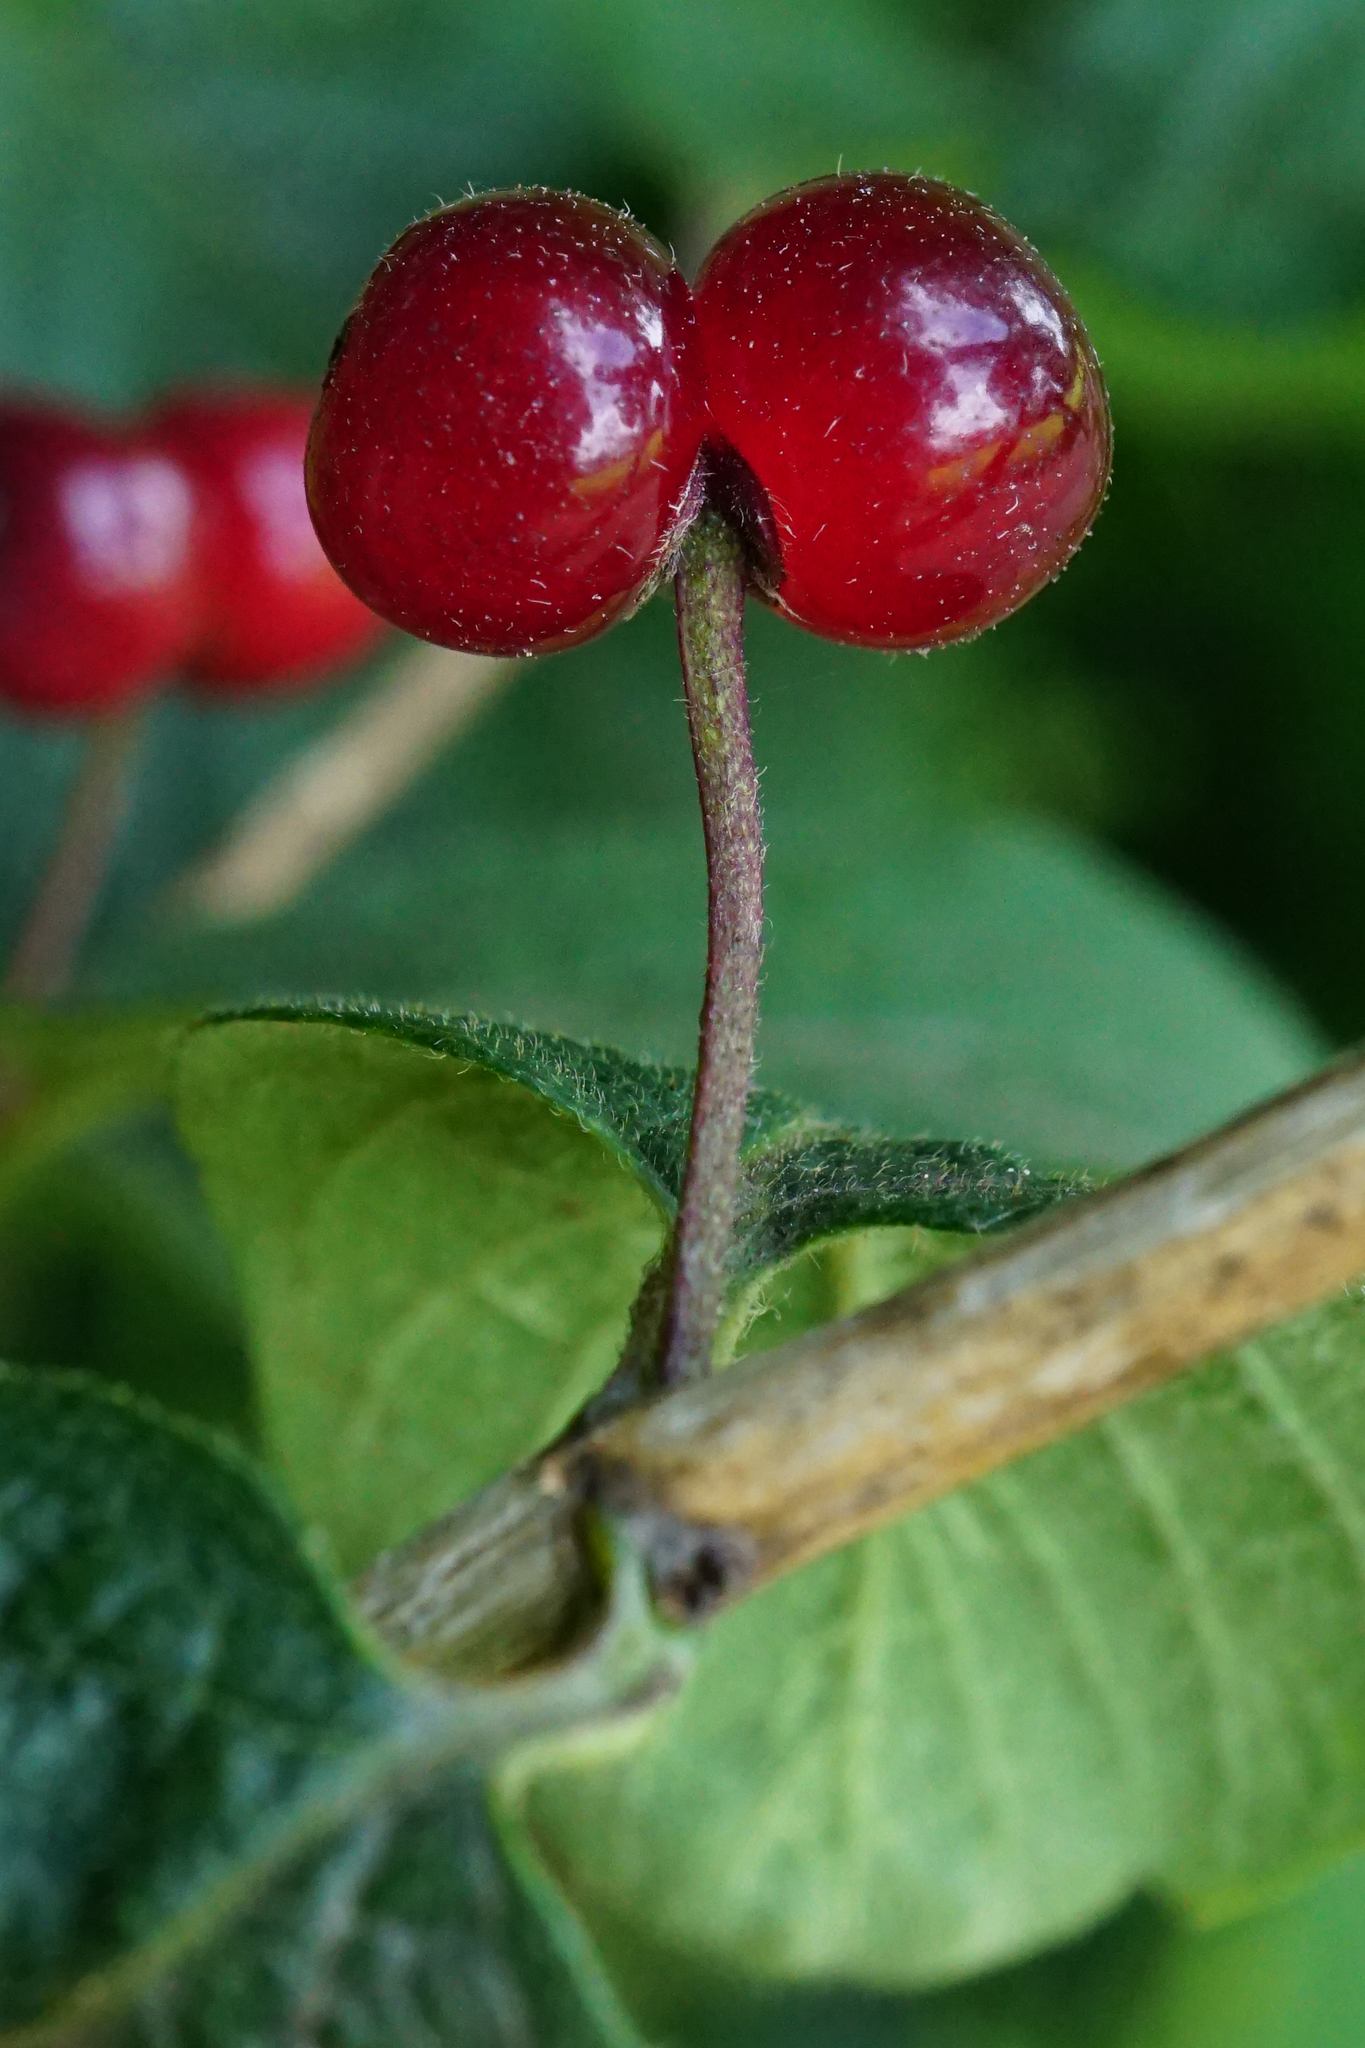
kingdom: Plantae
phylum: Tracheophyta
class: Magnoliopsida
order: Dipsacales
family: Caprifoliaceae
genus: Lonicera
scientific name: Lonicera xylosteum
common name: Fly honeysuckle
